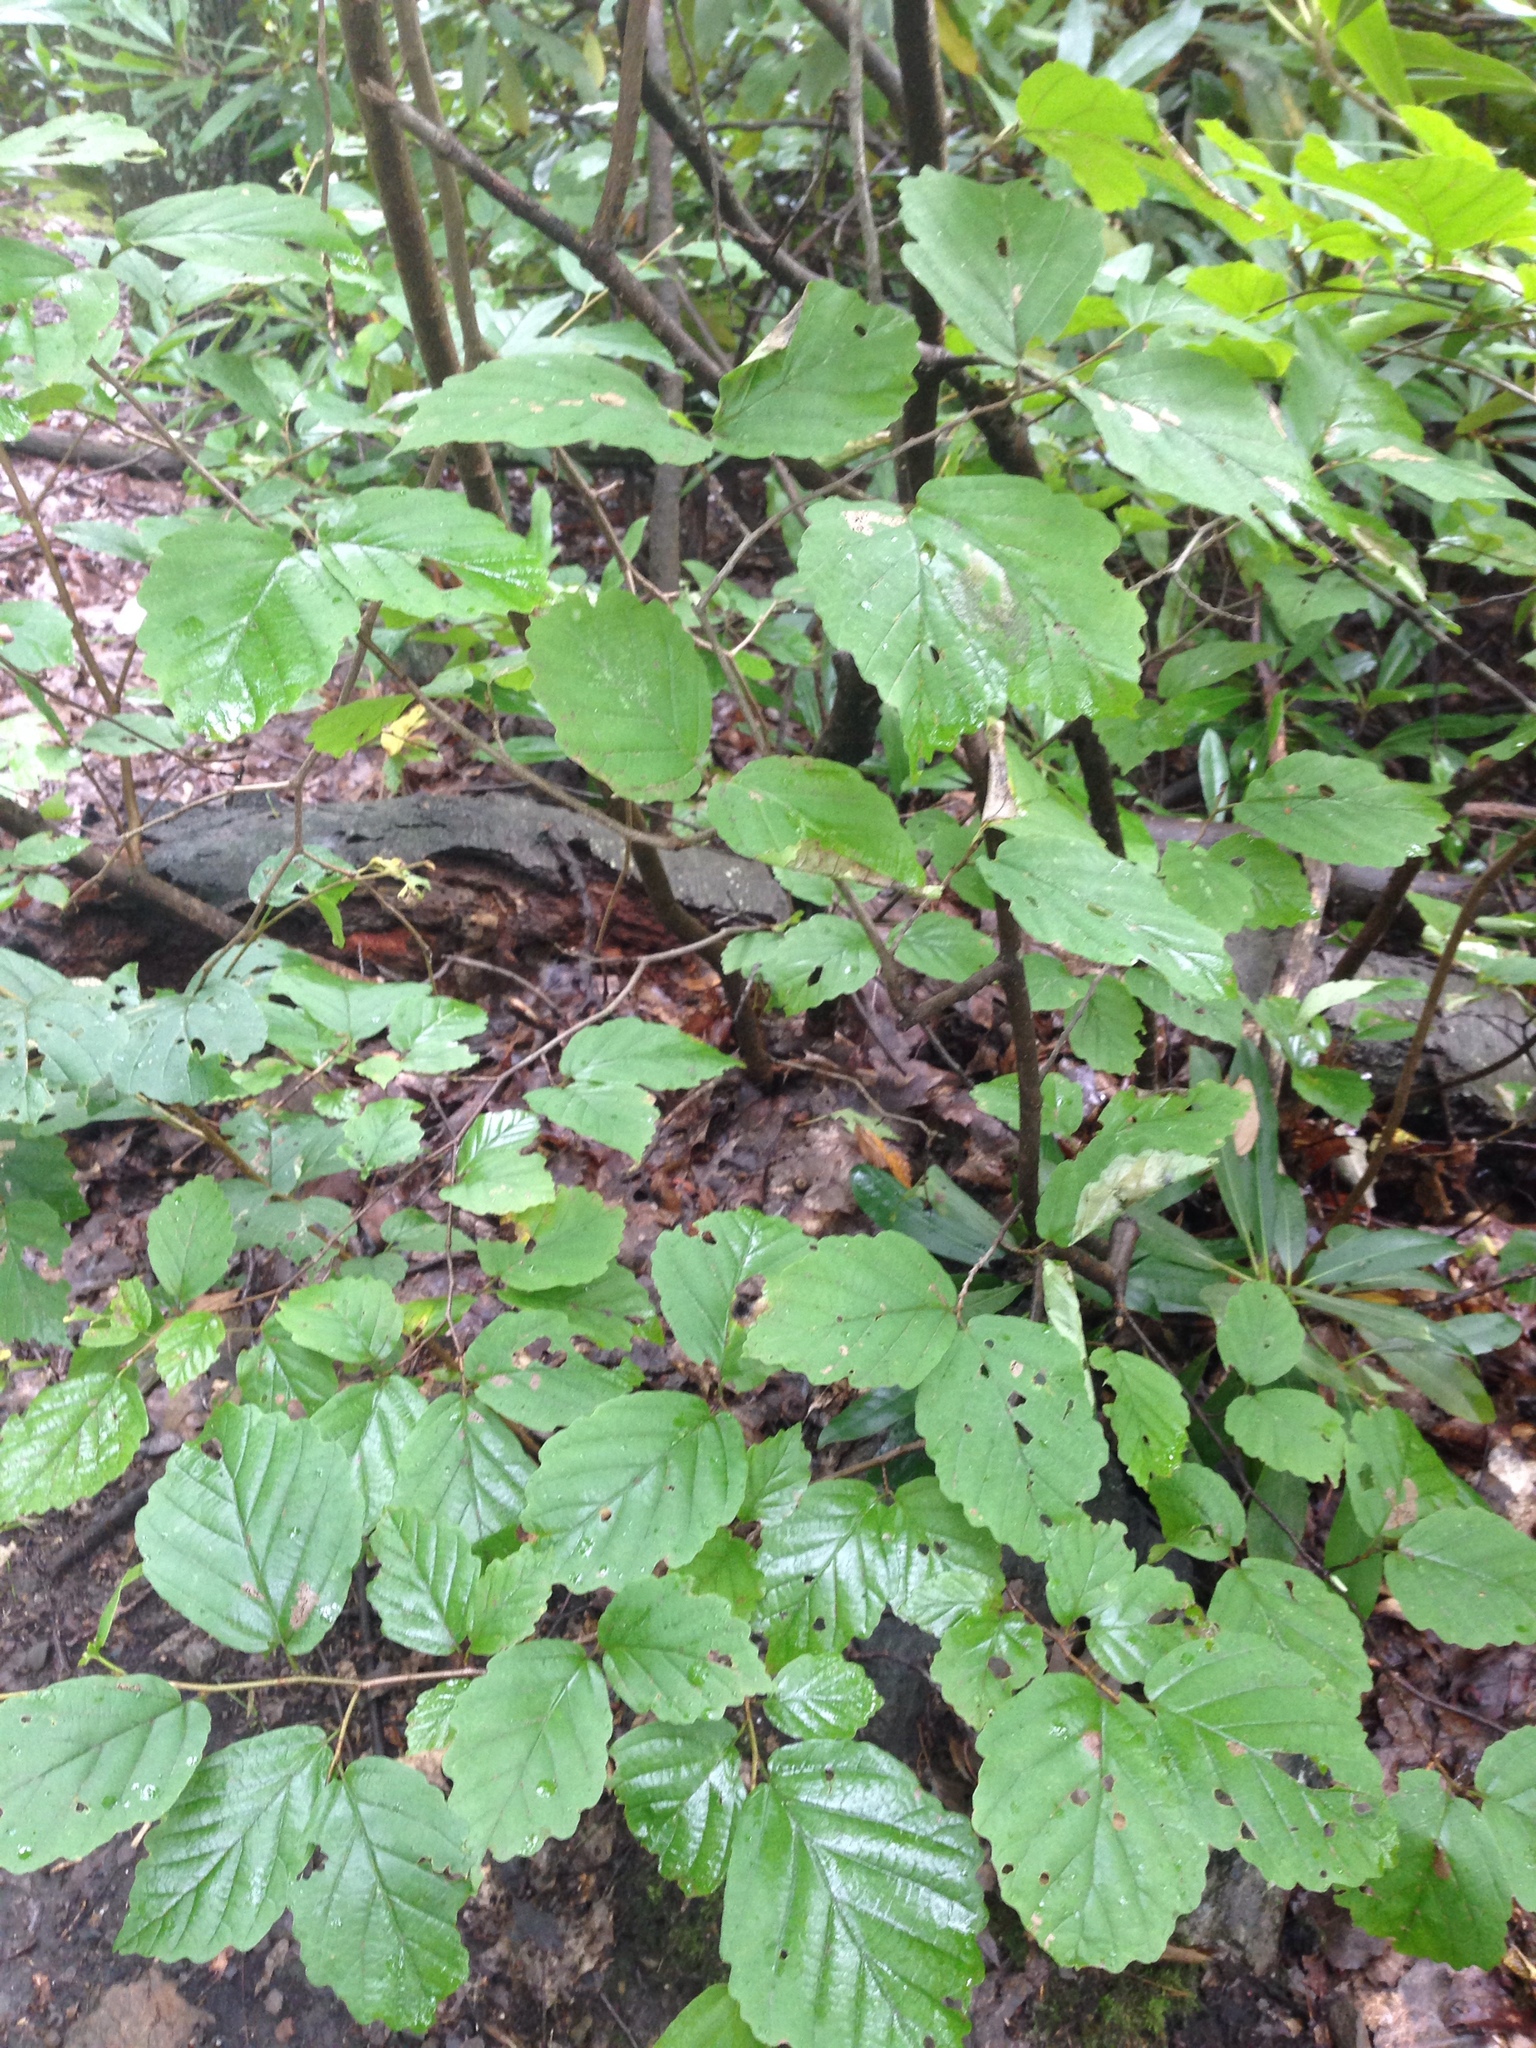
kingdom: Plantae
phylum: Tracheophyta
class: Magnoliopsida
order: Saxifragales
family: Hamamelidaceae
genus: Hamamelis
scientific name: Hamamelis virginiana
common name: Witch-hazel
